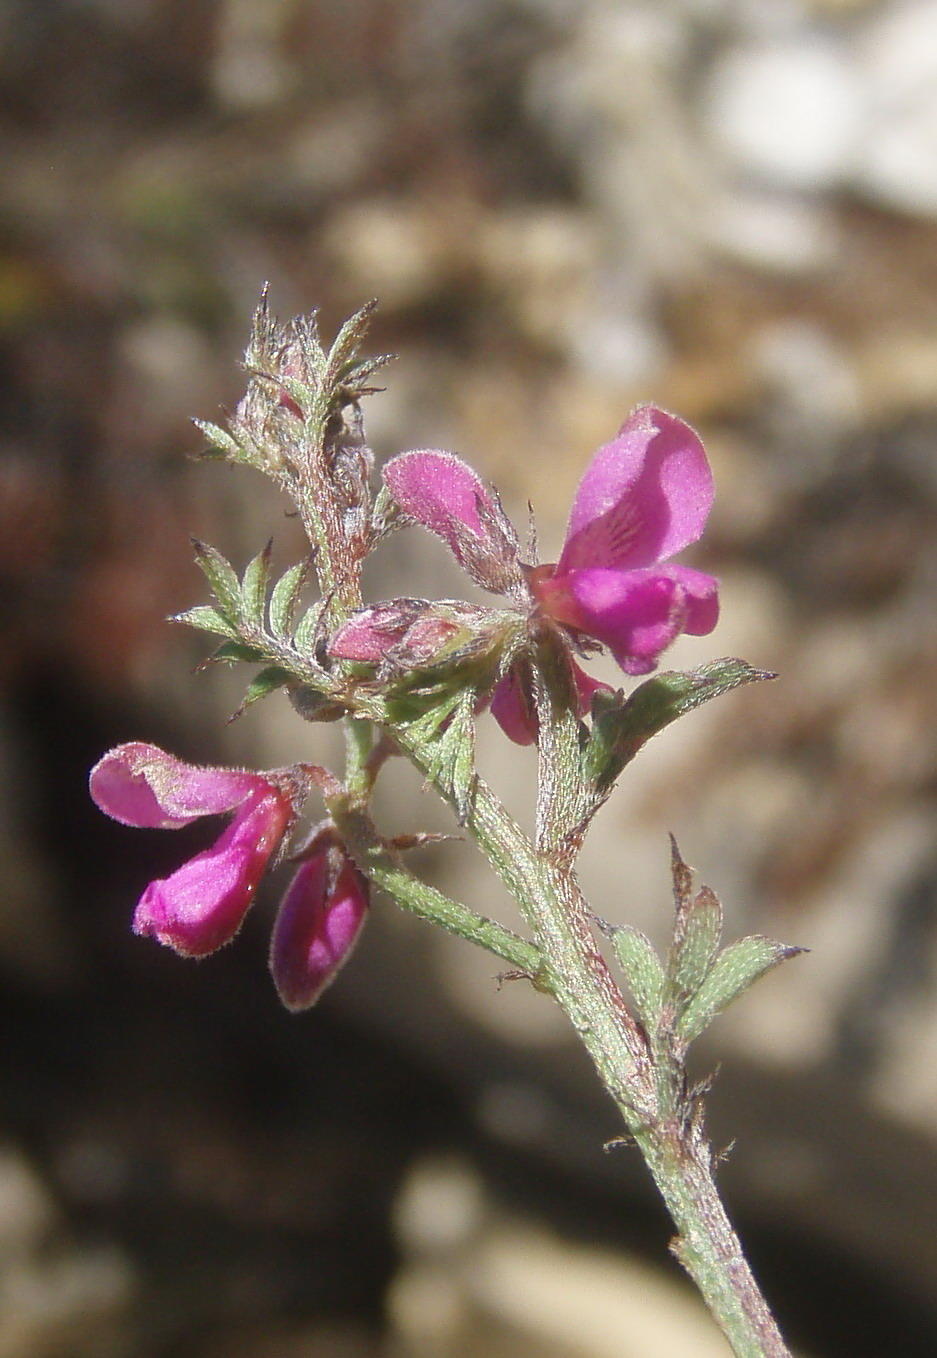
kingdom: Plantae
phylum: Tracheophyta
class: Magnoliopsida
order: Fabales
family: Fabaceae
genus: Indigofera
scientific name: Indigofera declinata
